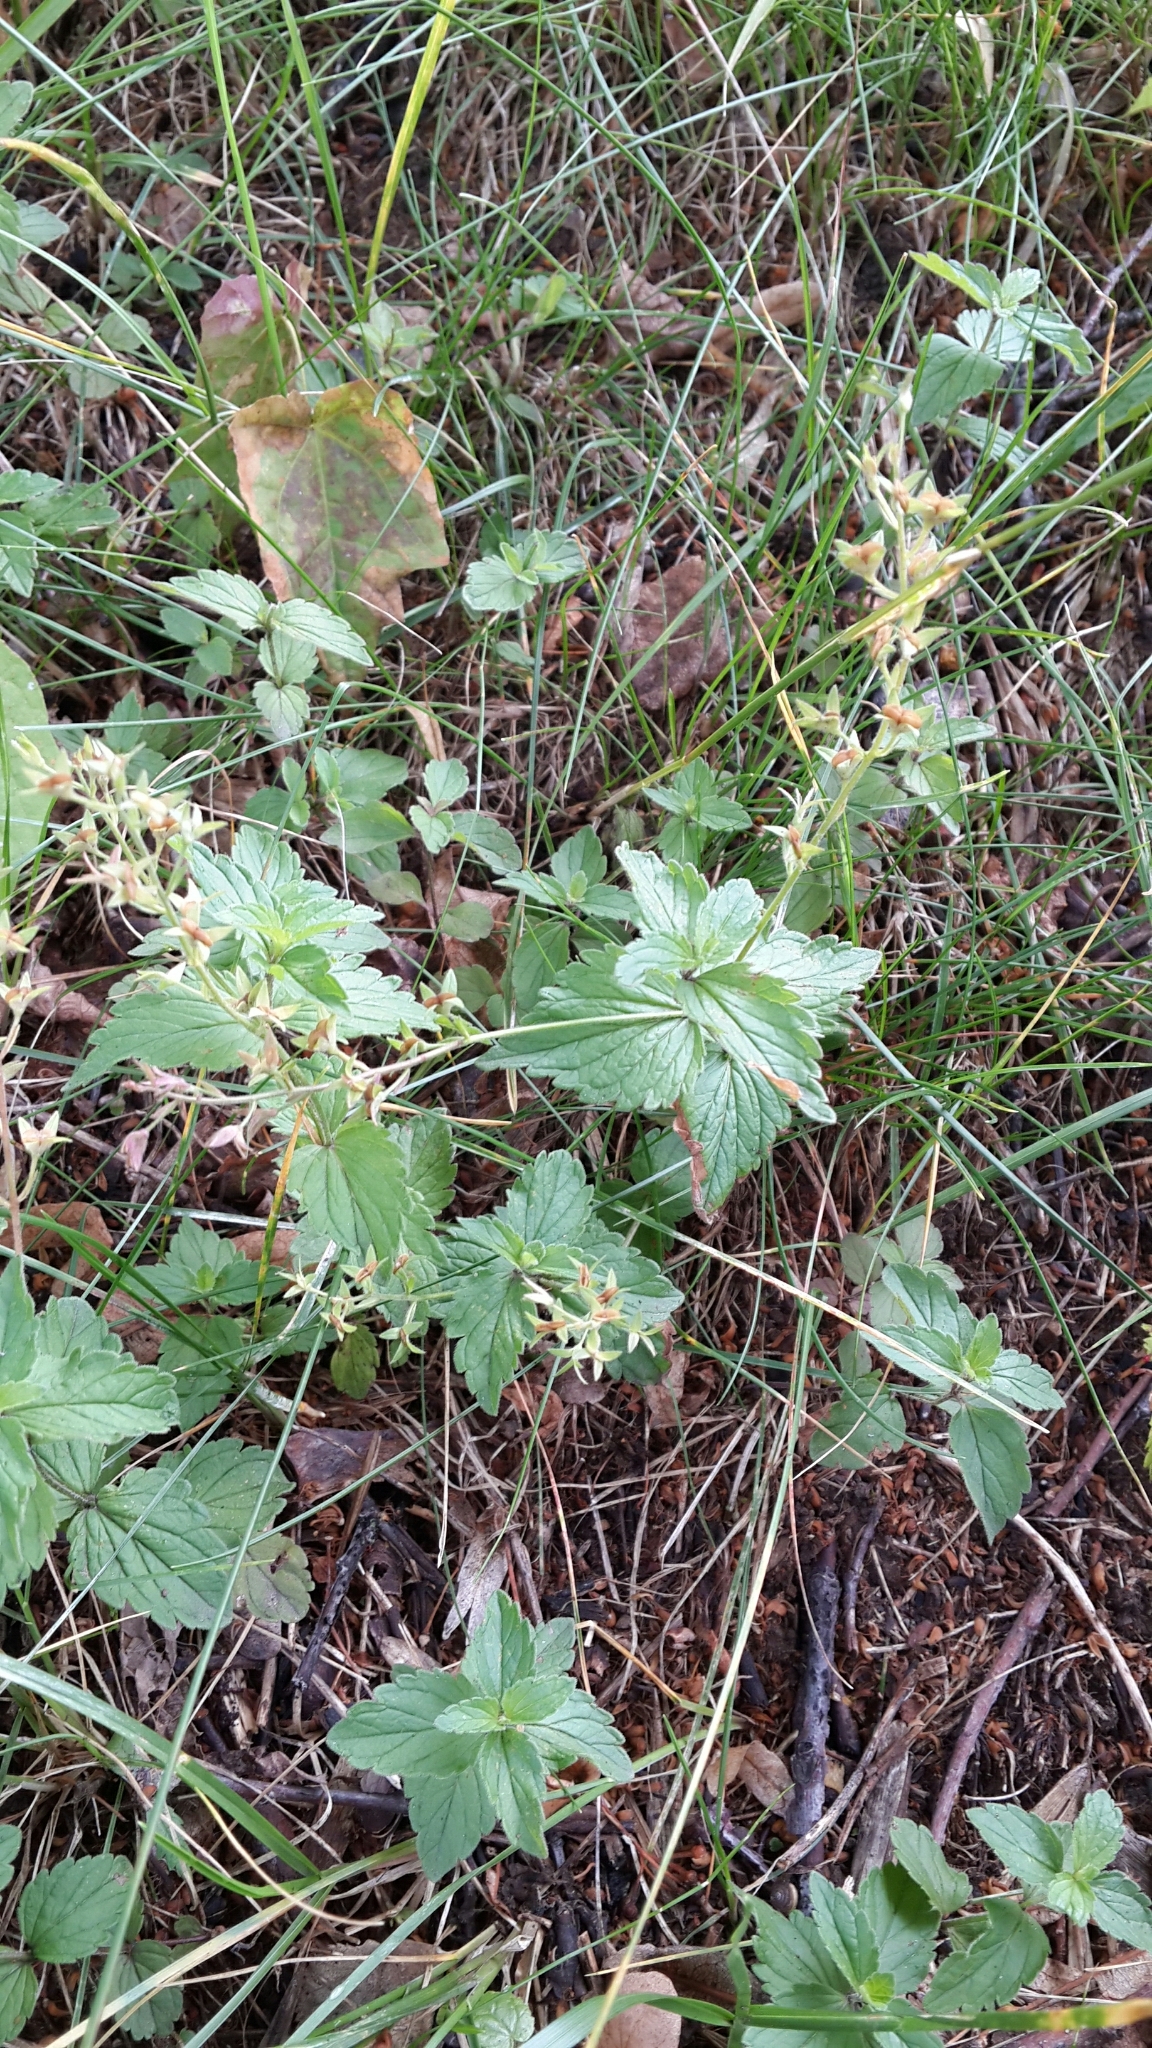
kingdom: Plantae
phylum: Tracheophyta
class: Magnoliopsida
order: Lamiales
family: Plantaginaceae
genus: Veronica
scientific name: Veronica chamaedrys
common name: Germander speedwell
